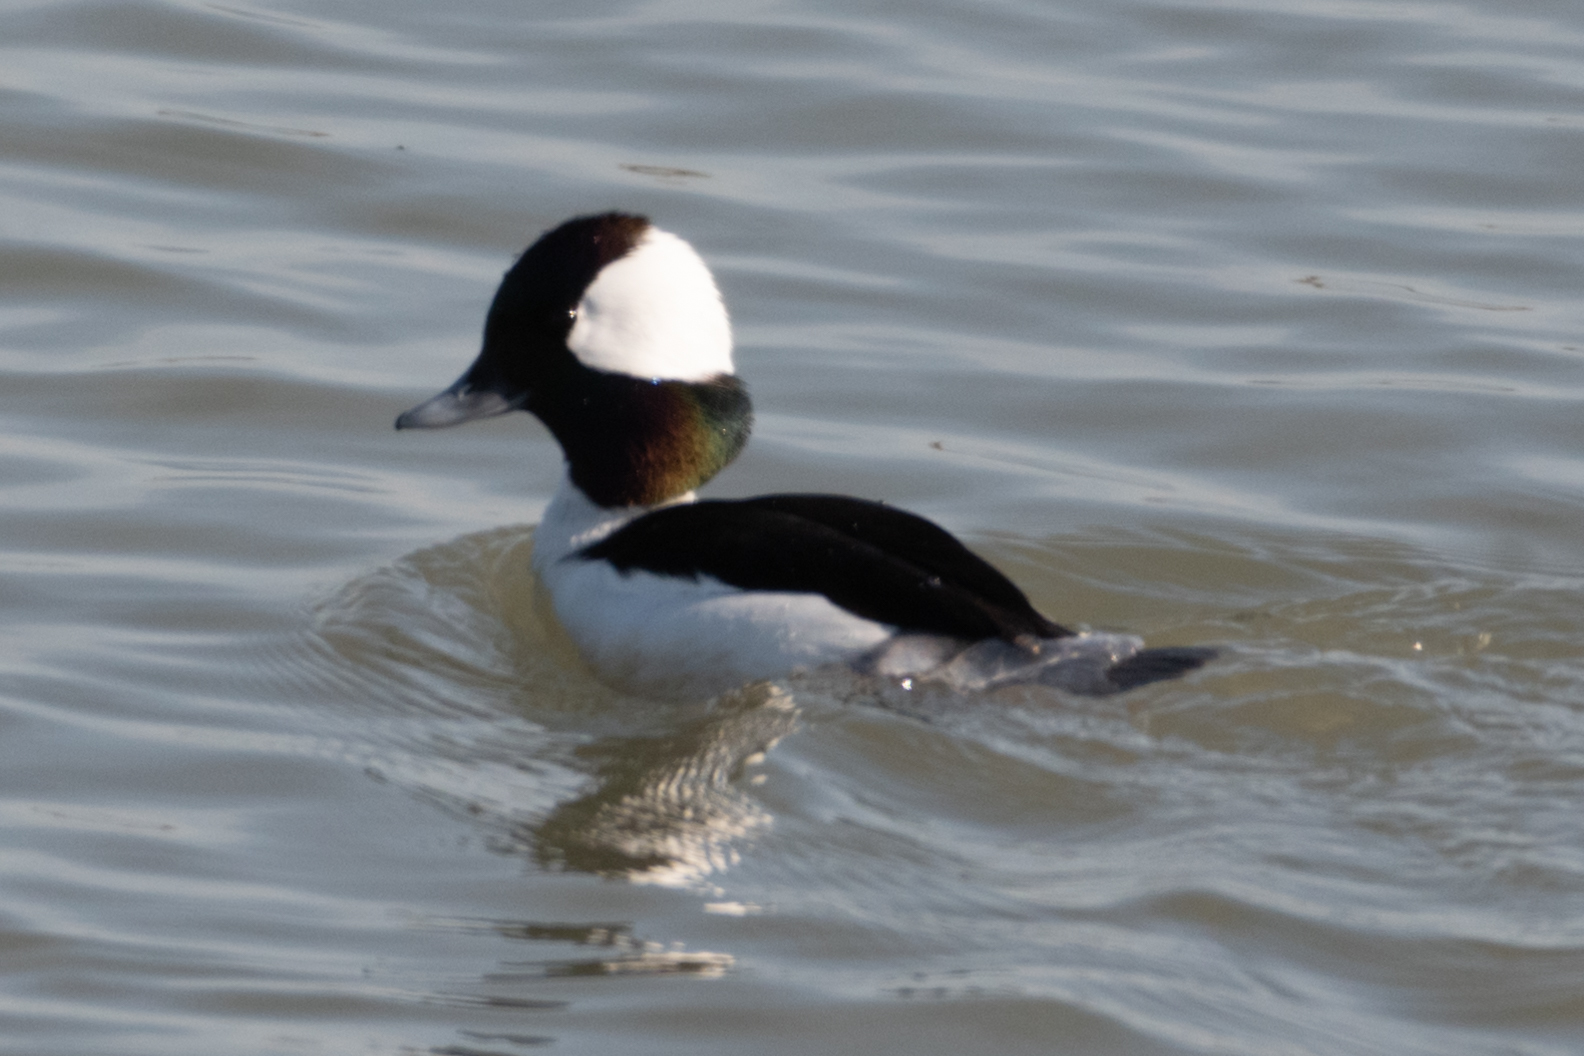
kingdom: Animalia
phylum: Chordata
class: Aves
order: Anseriformes
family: Anatidae
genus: Bucephala
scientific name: Bucephala albeola
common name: Bufflehead
